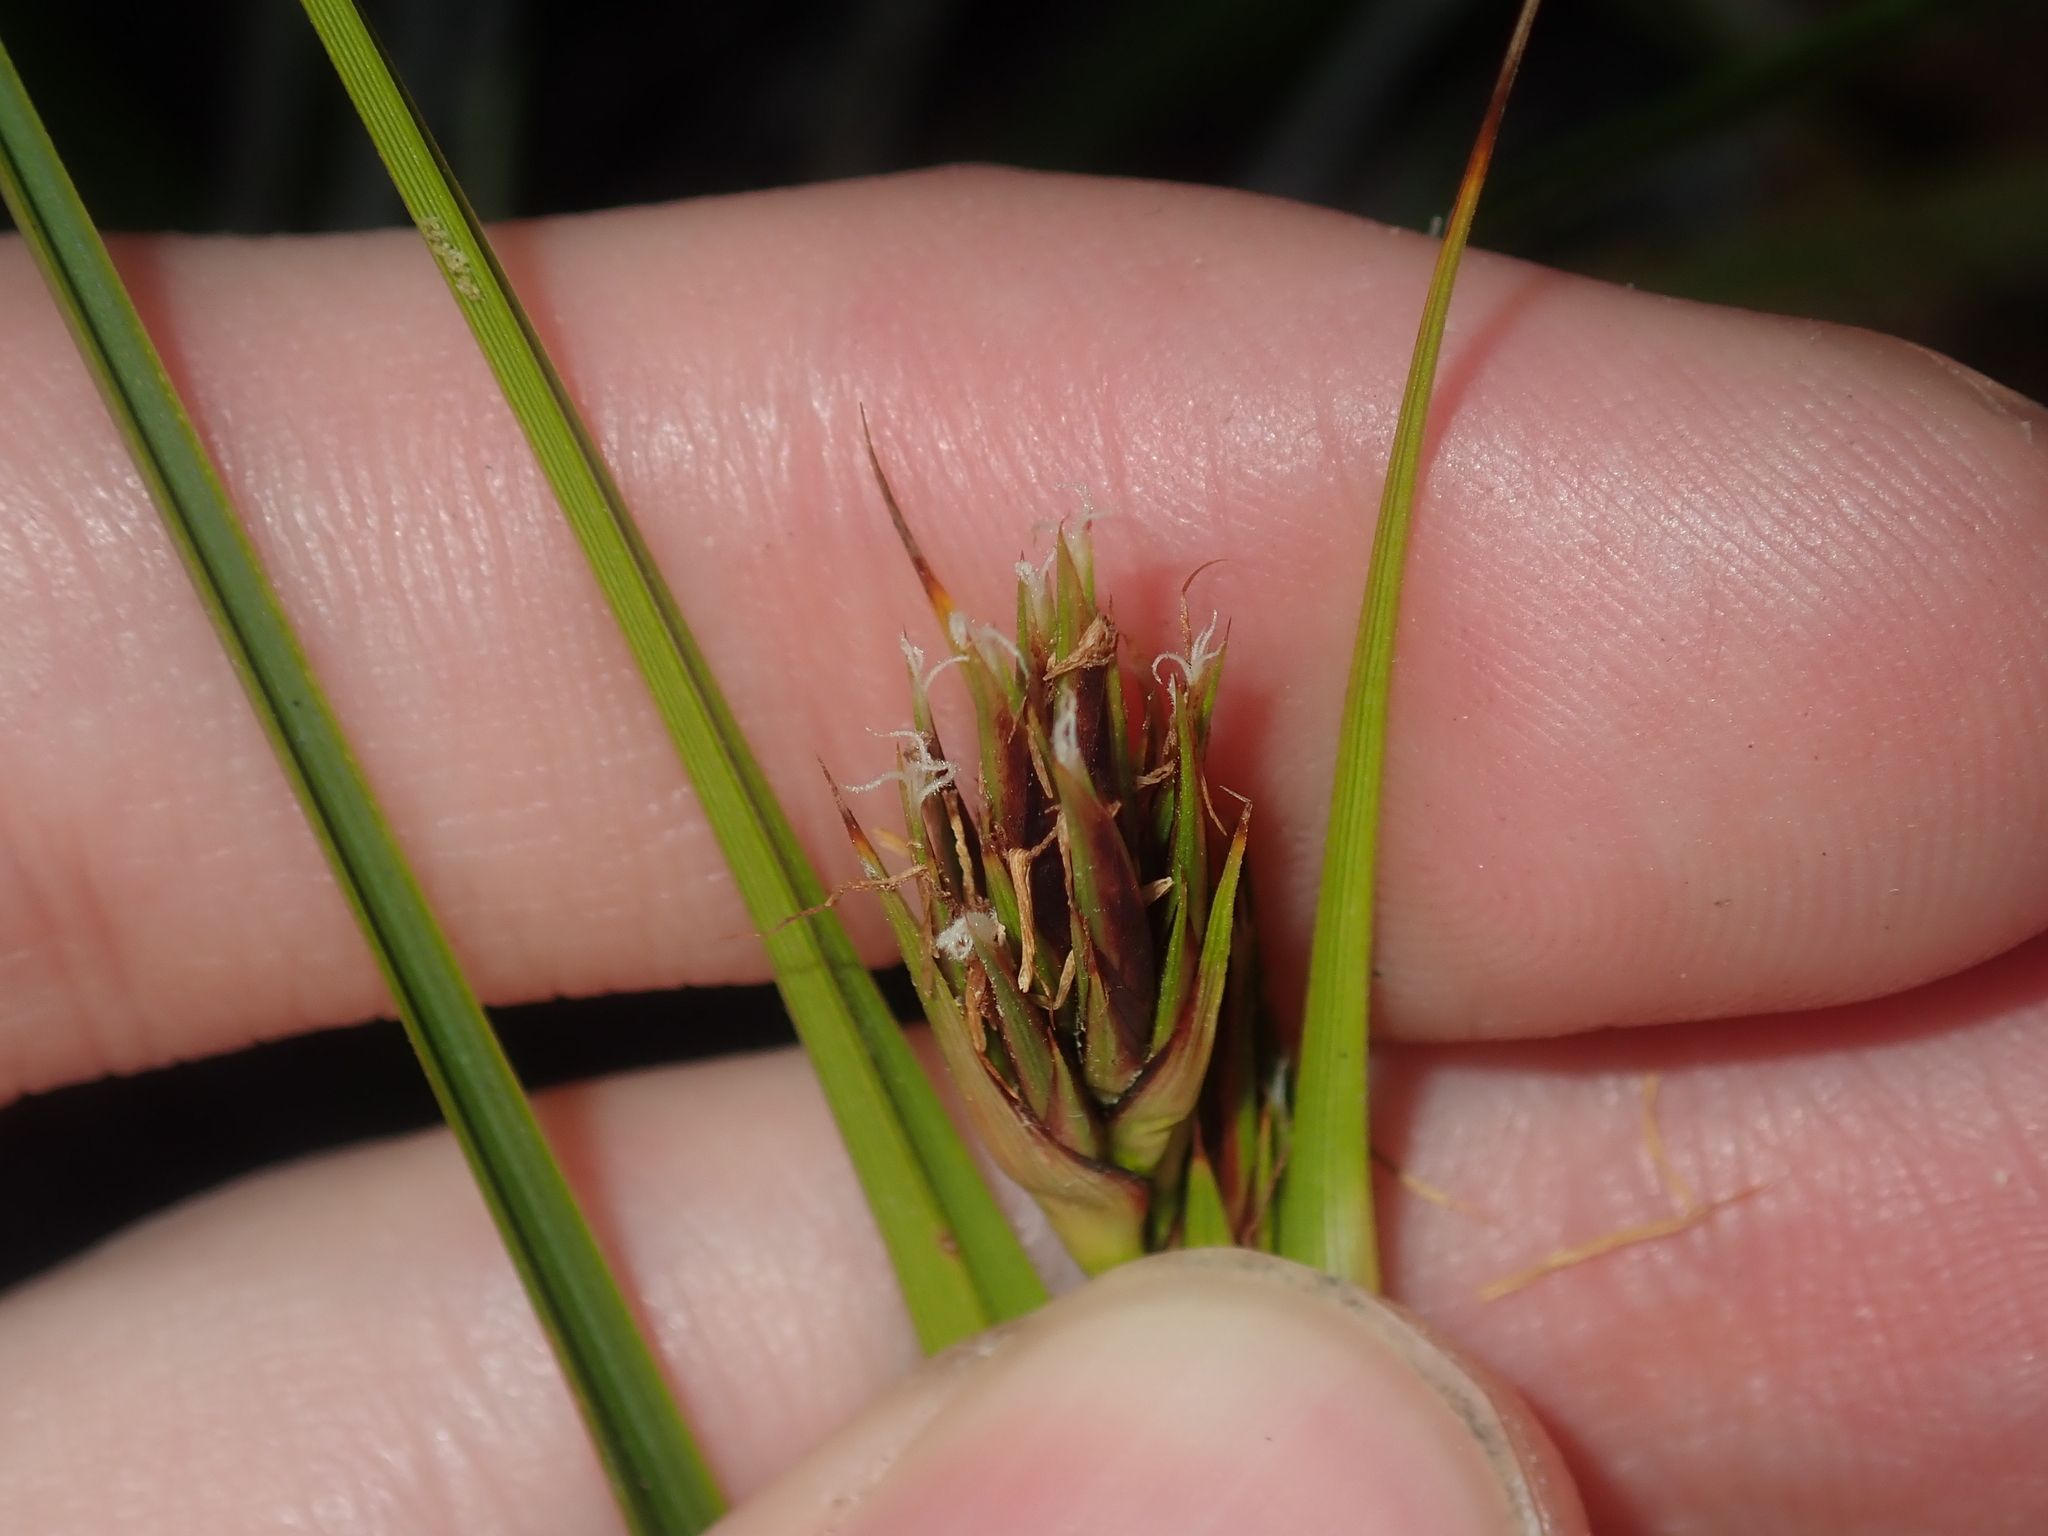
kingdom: Plantae
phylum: Tracheophyta
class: Liliopsida
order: Poales
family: Cyperaceae
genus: Morelotia
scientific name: Morelotia
